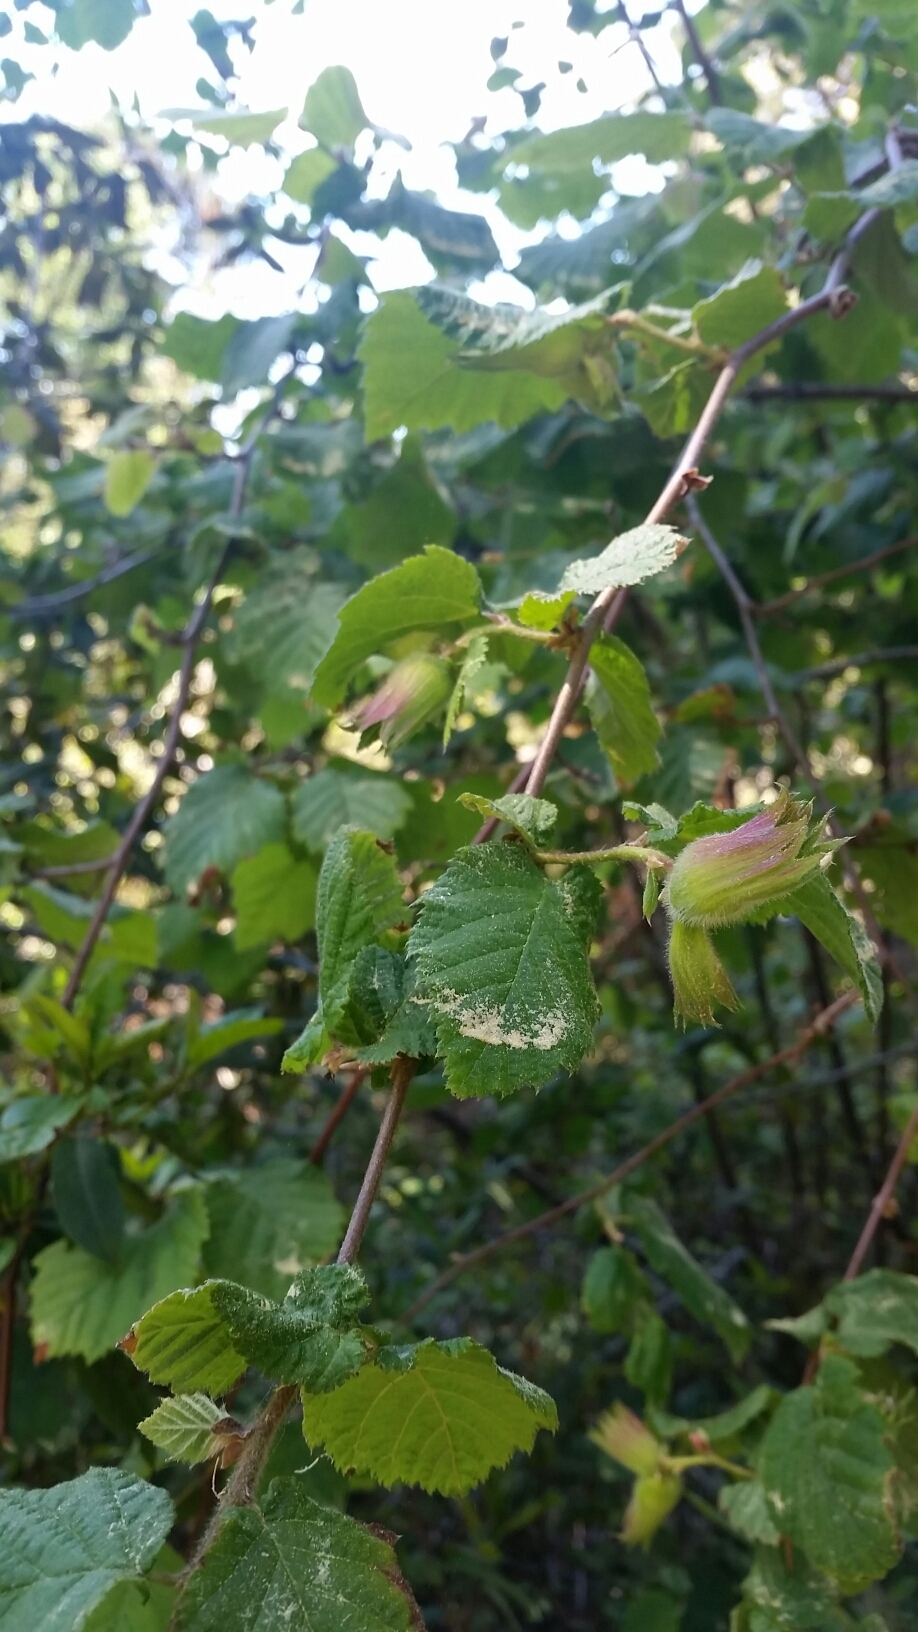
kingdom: Plantae
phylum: Tracheophyta
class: Magnoliopsida
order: Fagales
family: Betulaceae
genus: Corylus
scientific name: Corylus cornuta
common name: Beaked hazel
